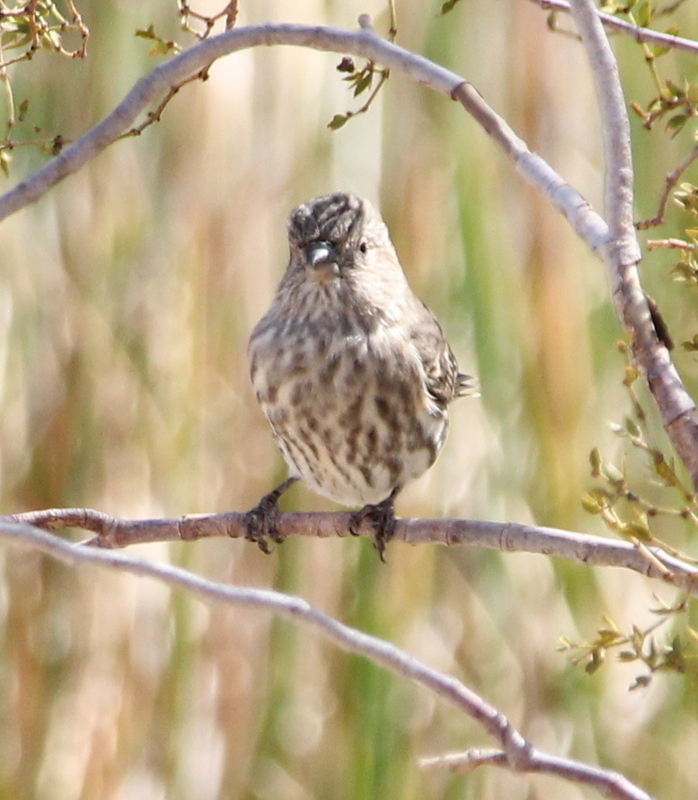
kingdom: Animalia
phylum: Chordata
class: Aves
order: Passeriformes
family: Fringillidae
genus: Haemorhous
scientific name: Haemorhous mexicanus
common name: House finch
